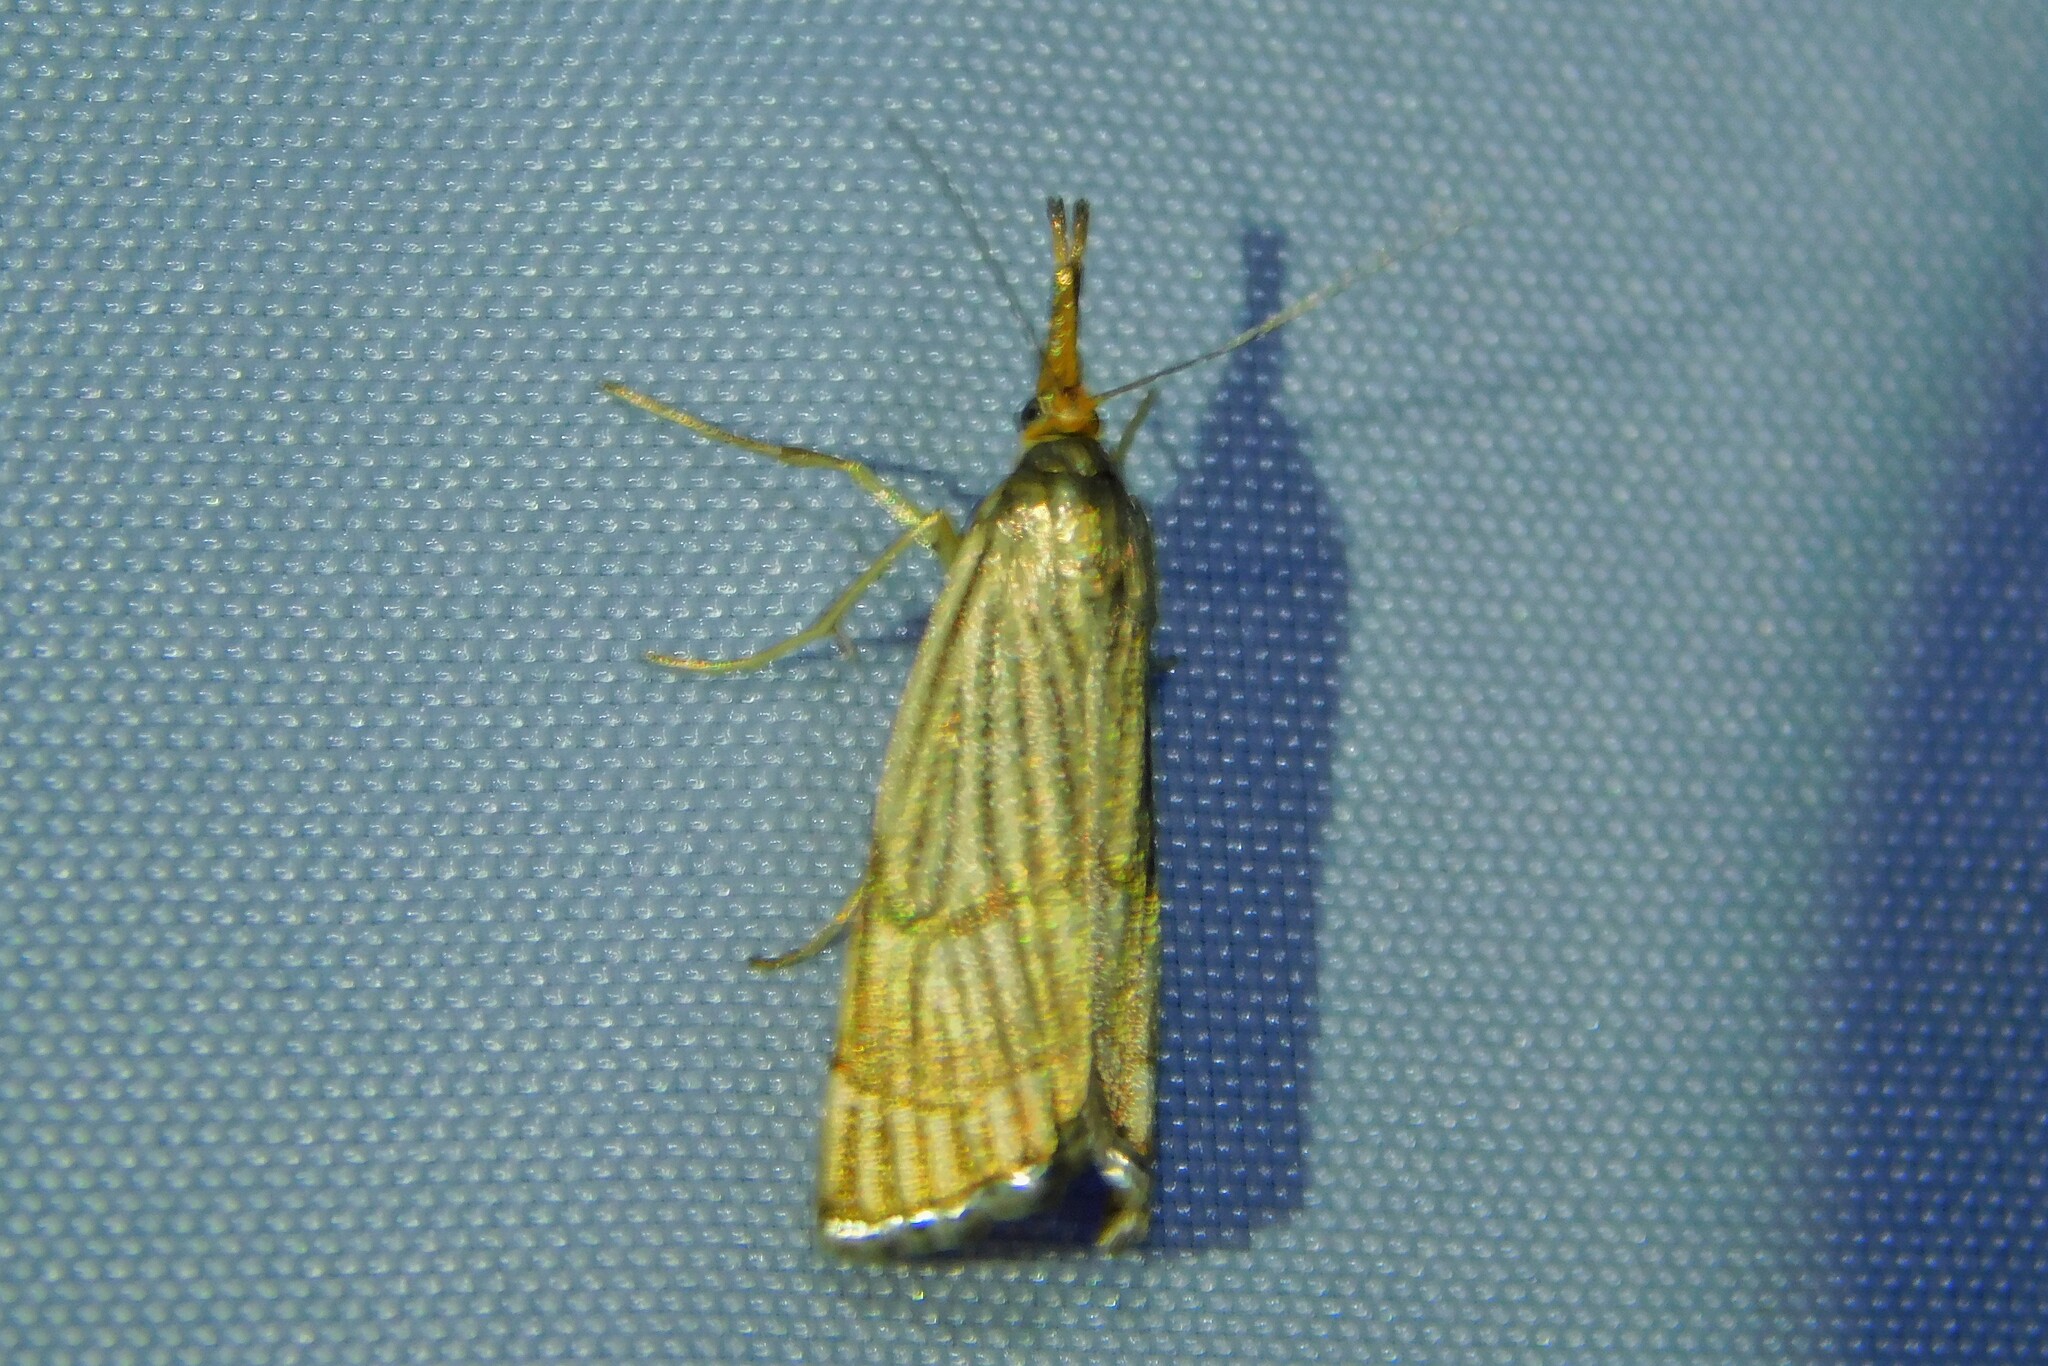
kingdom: Animalia
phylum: Arthropoda
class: Insecta
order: Lepidoptera
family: Crambidae
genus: Chrysocrambus
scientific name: Chrysocrambus linetella
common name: Orange-bar grass-veneer
